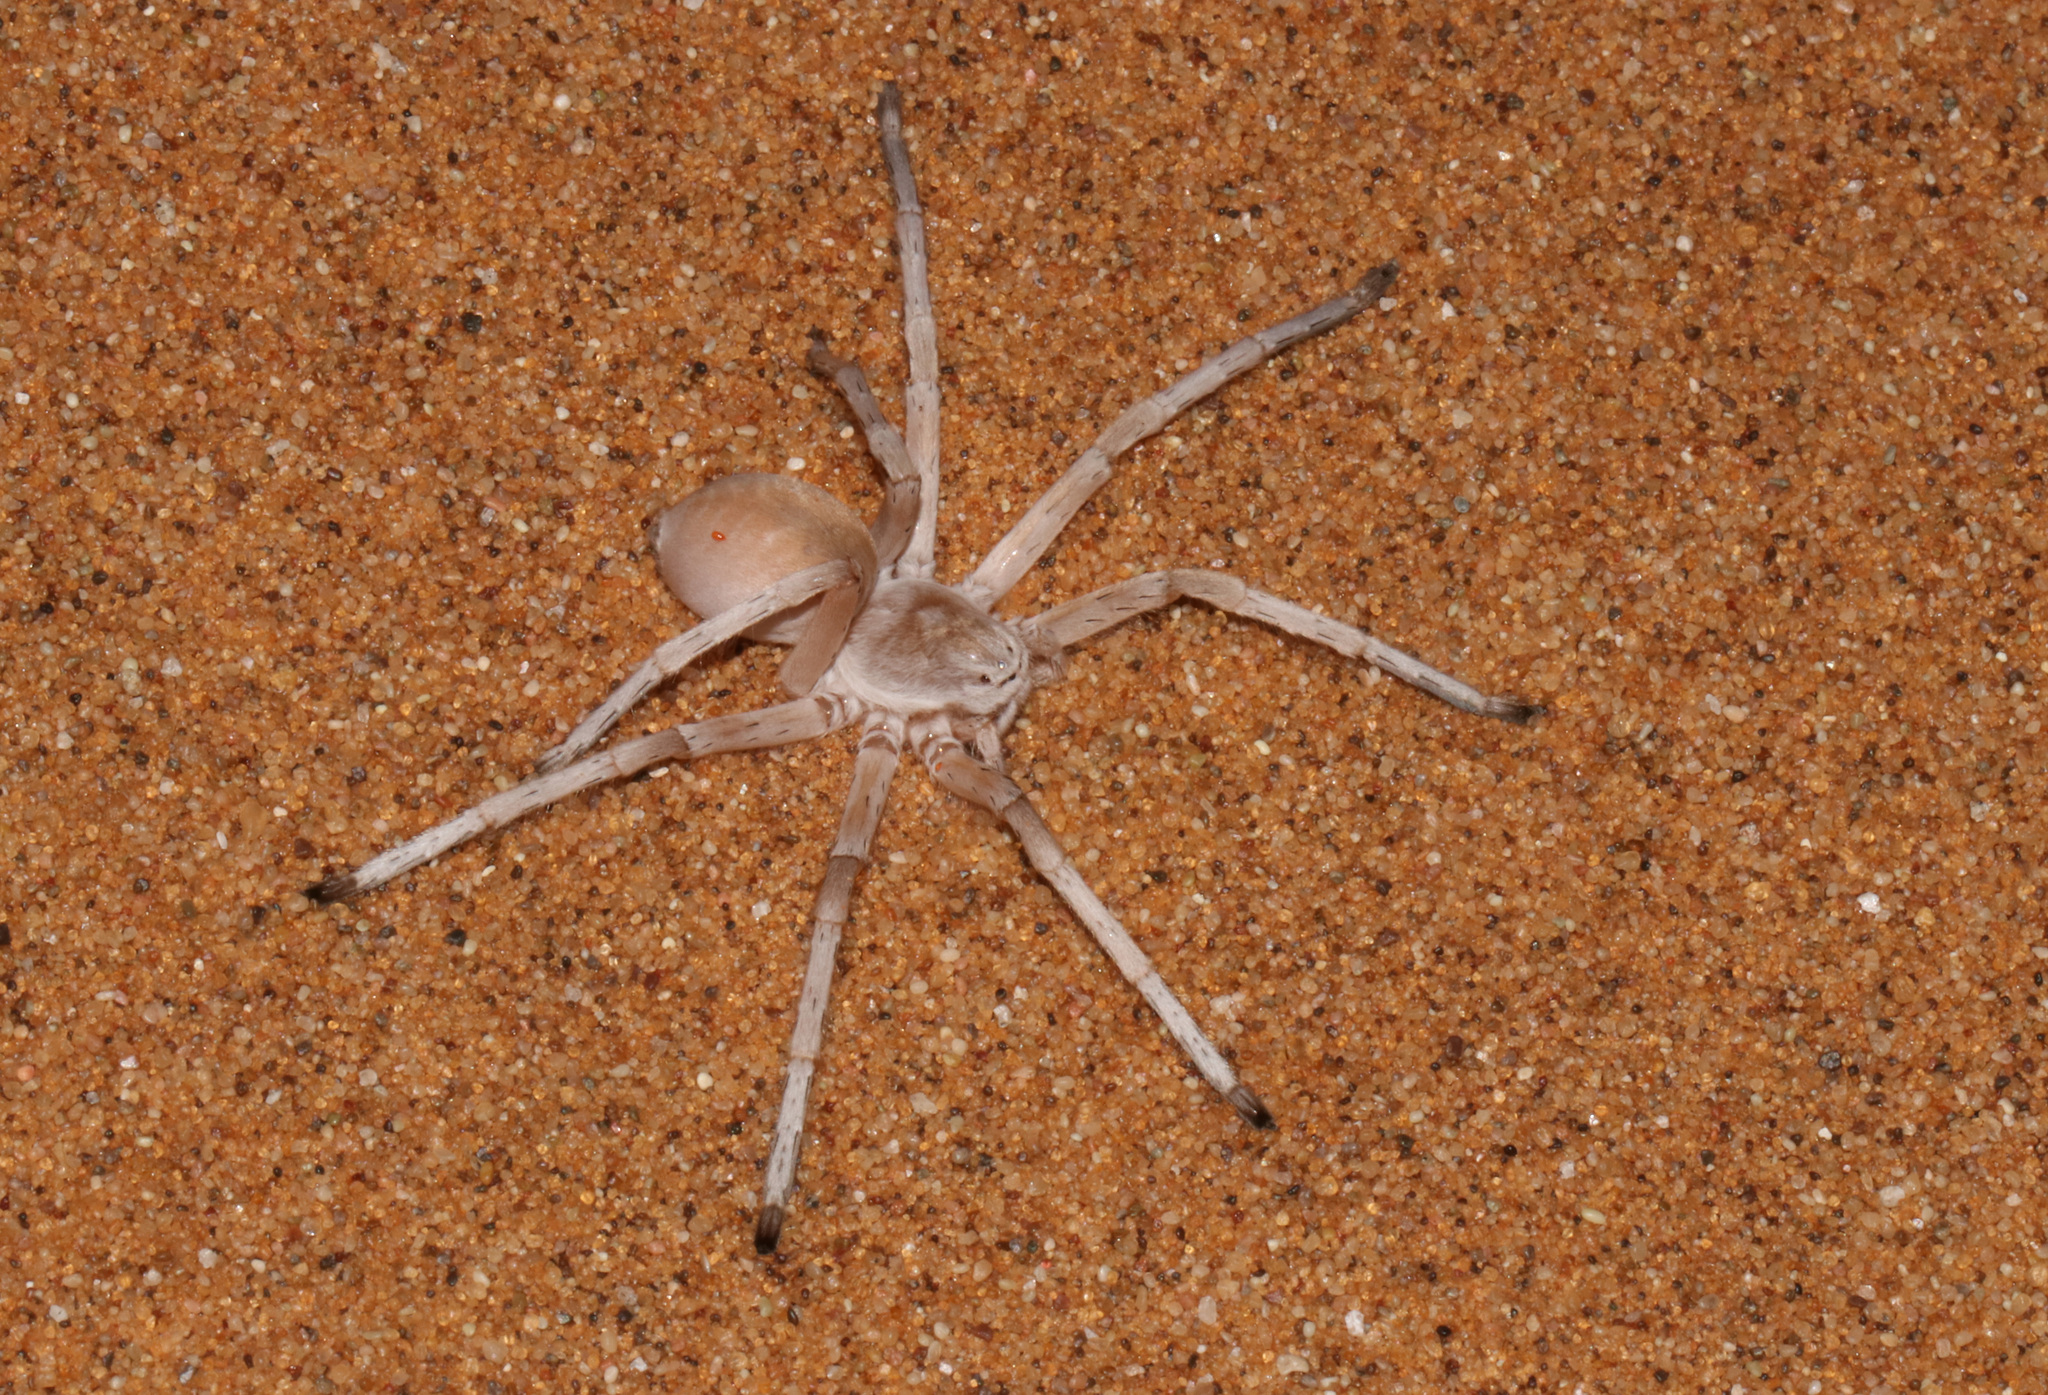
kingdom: Animalia
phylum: Arthropoda
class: Arachnida
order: Araneae
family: Sparassidae
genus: Leucorchestris
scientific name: Leucorchestris arenicola
